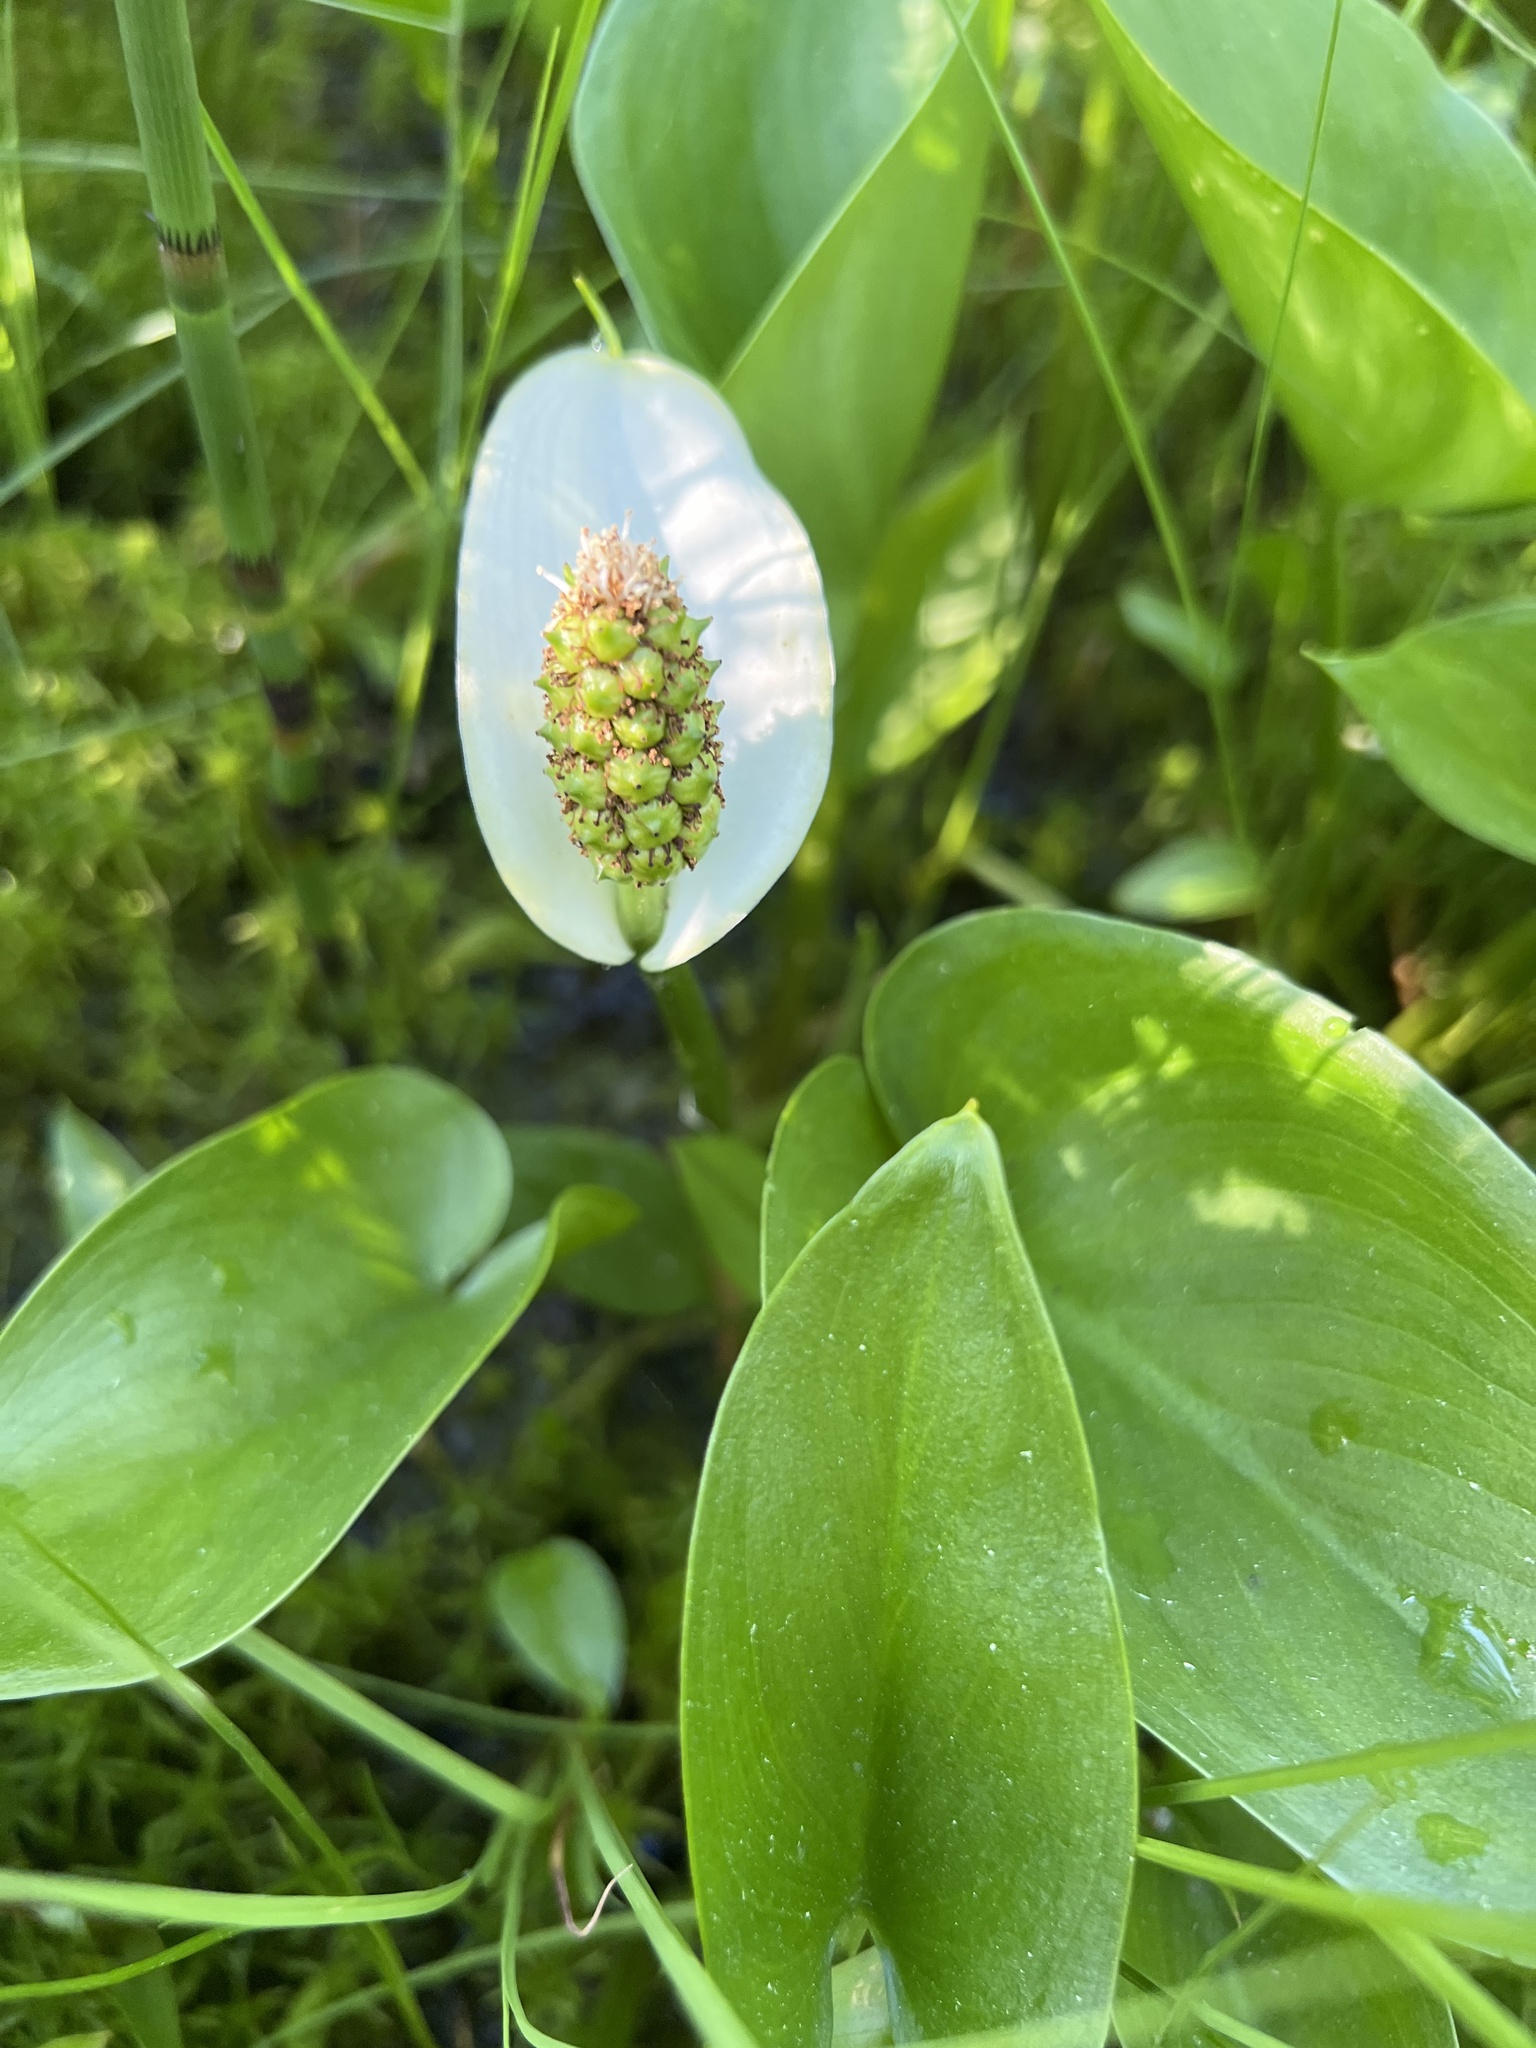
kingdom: Plantae
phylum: Tracheophyta
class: Liliopsida
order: Alismatales
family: Araceae
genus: Calla
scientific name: Calla palustris
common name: Bog arum
